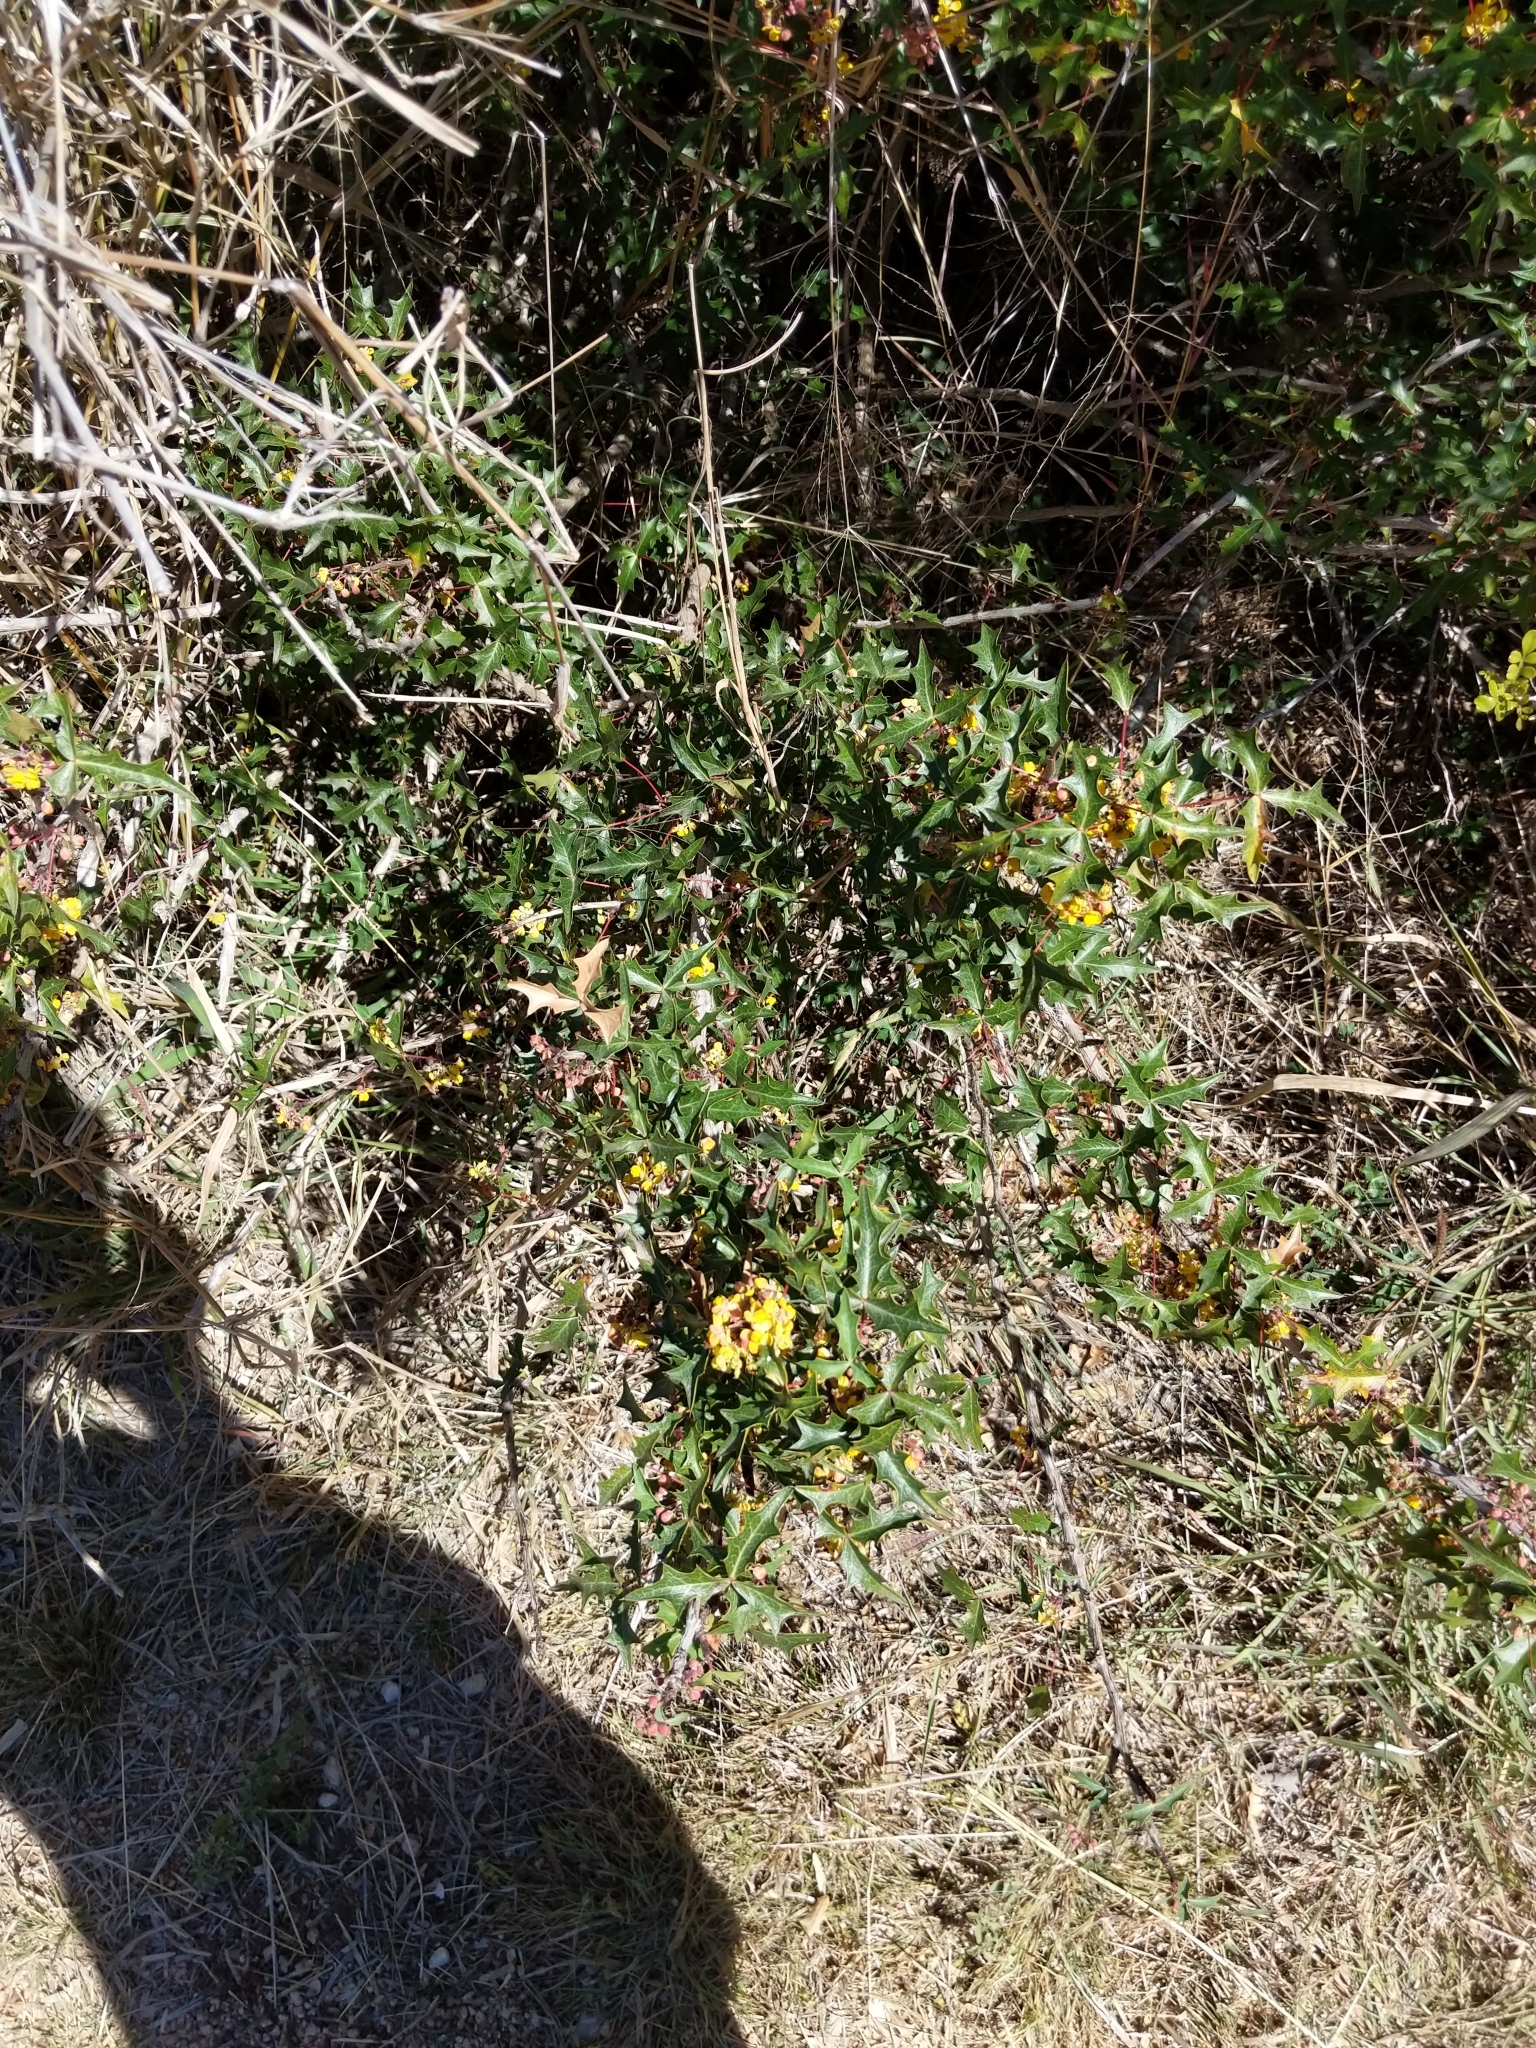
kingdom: Plantae
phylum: Tracheophyta
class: Magnoliopsida
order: Ranunculales
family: Berberidaceae
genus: Alloberberis
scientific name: Alloberberis trifoliolata
